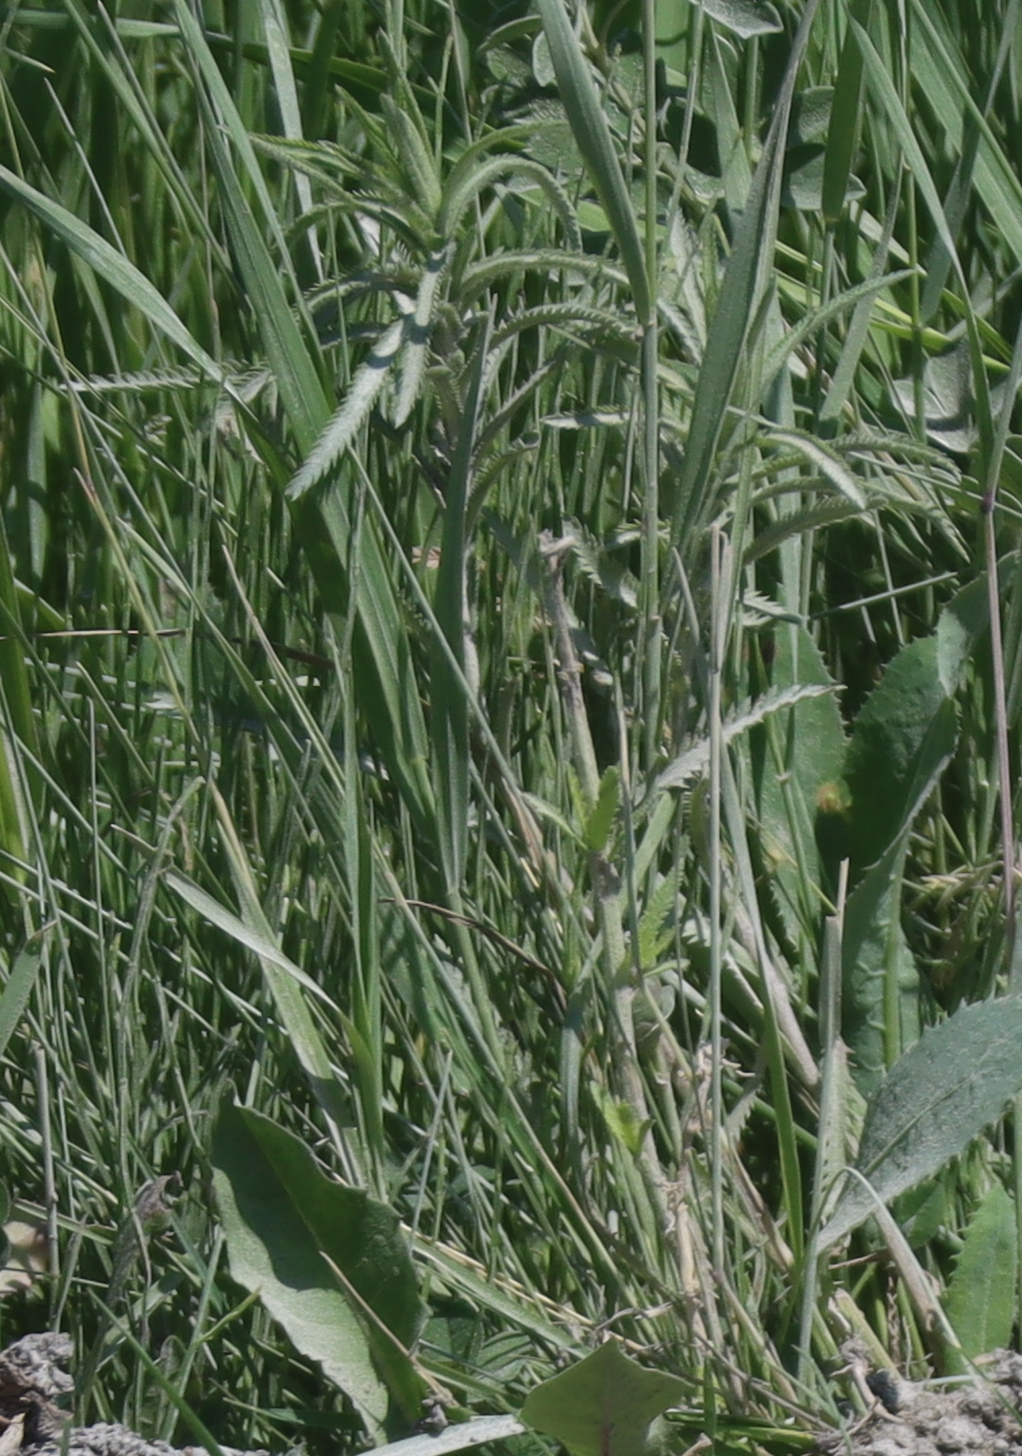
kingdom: Plantae
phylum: Tracheophyta
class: Magnoliopsida
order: Asterales
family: Asteraceae
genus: Achillea
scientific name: Achillea alpina
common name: Siberian yarrow
